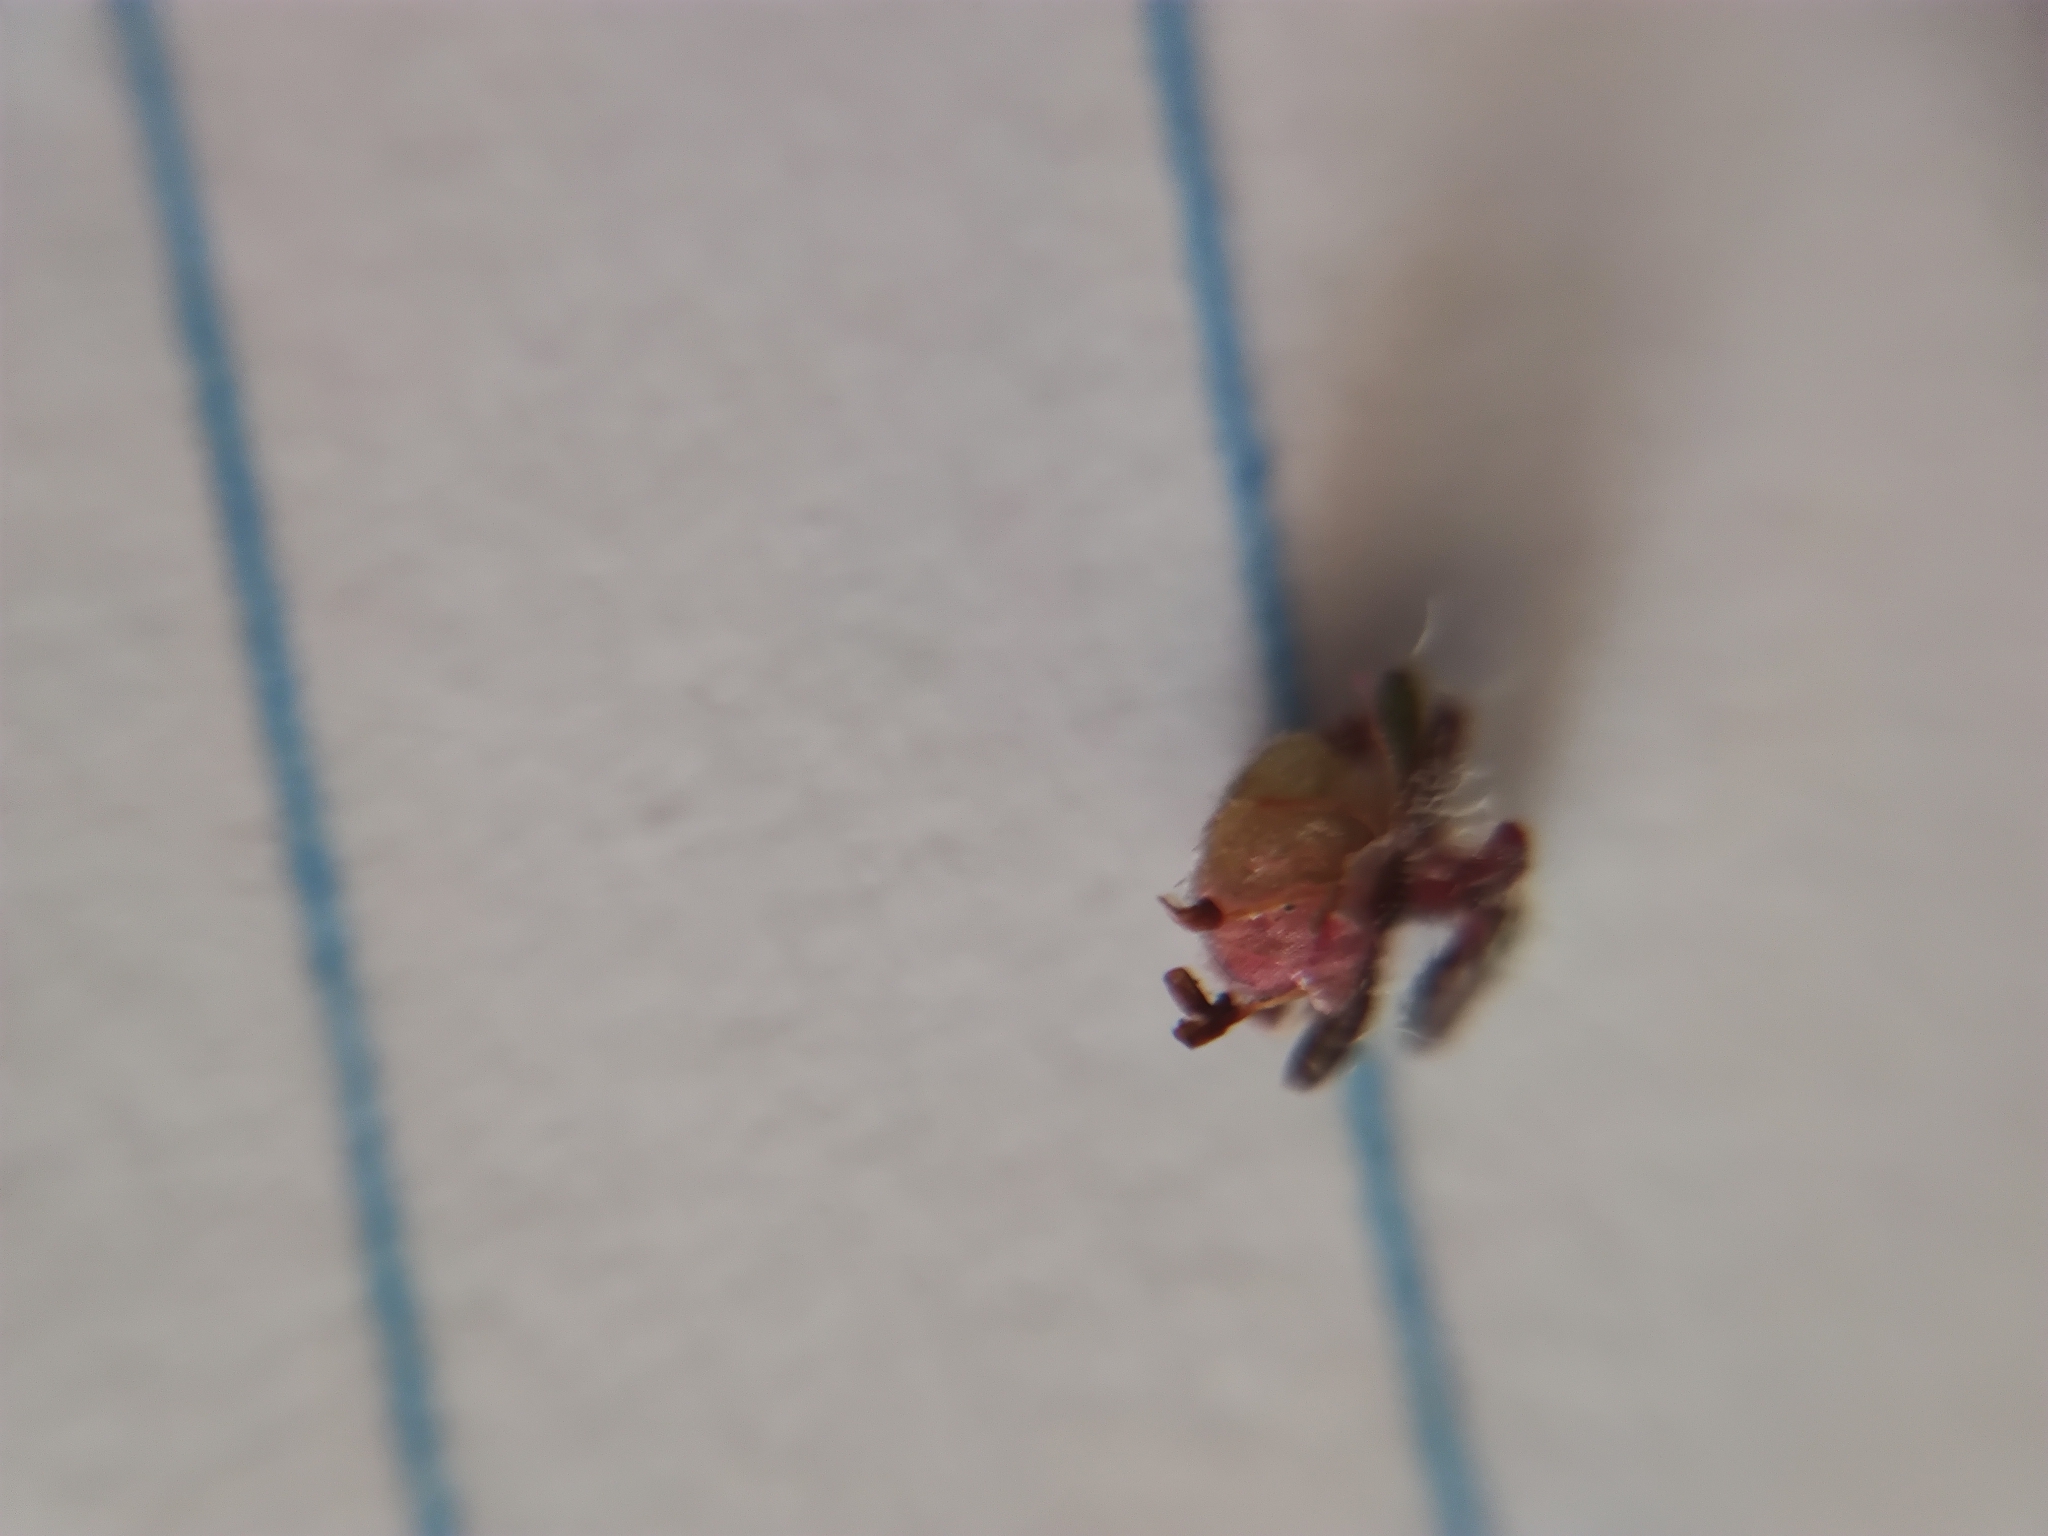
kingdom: Plantae
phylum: Tracheophyta
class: Magnoliopsida
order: Ericales
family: Ericaceae
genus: Erica
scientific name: Erica cubitans
